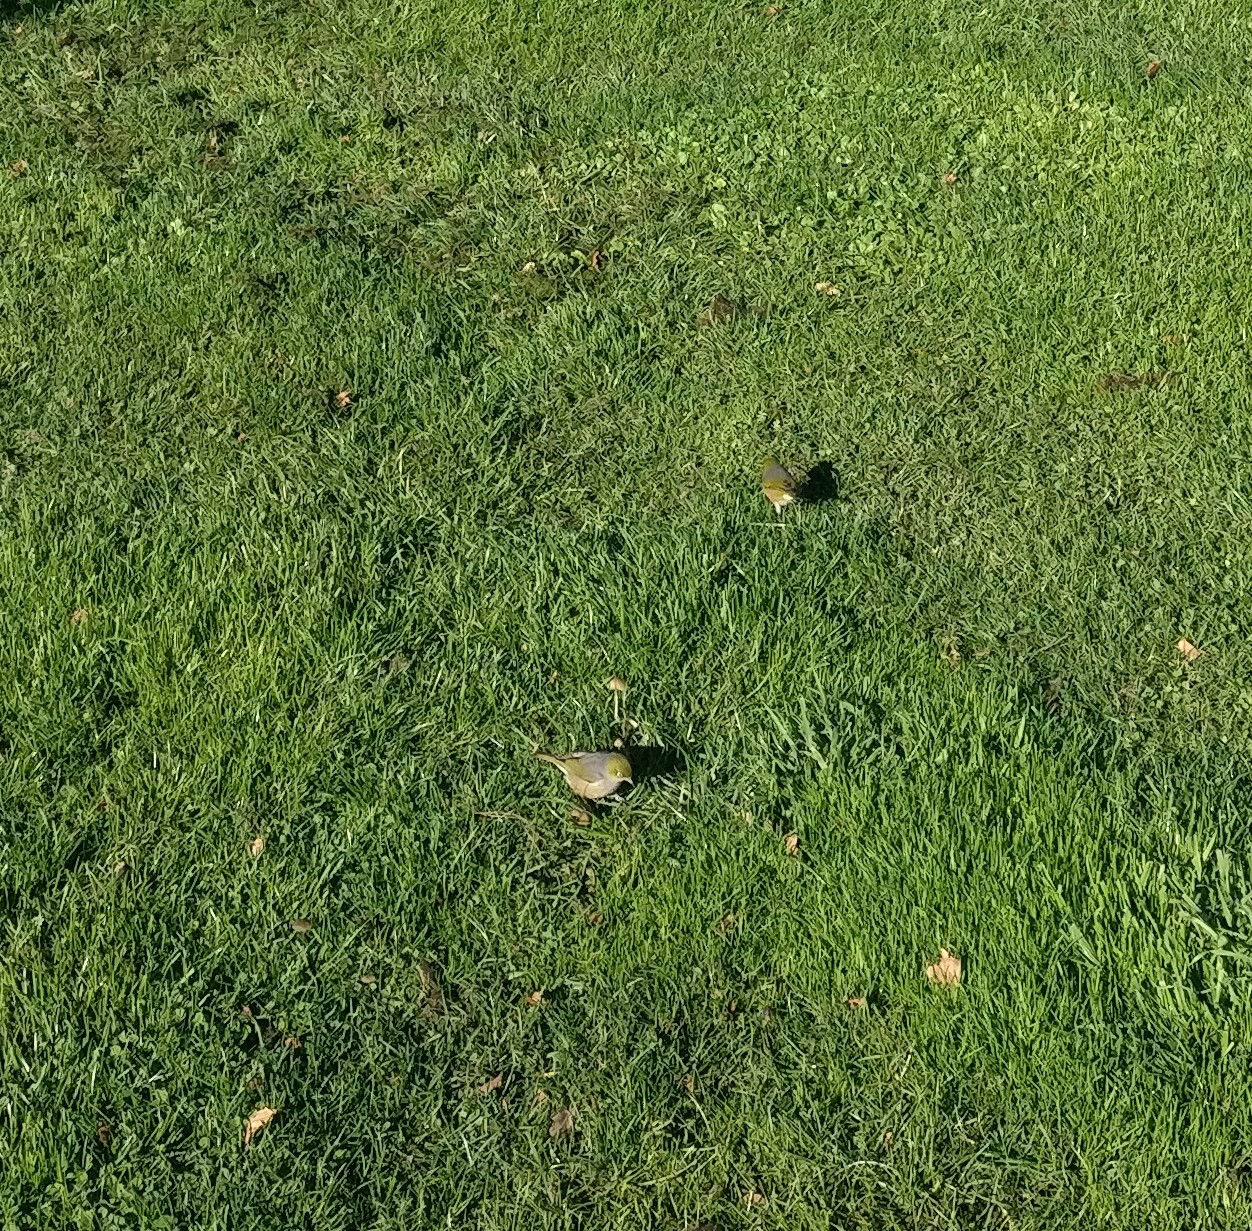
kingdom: Animalia
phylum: Chordata
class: Aves
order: Passeriformes
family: Zosteropidae
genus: Zosterops
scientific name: Zosterops lateralis
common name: Silvereye
